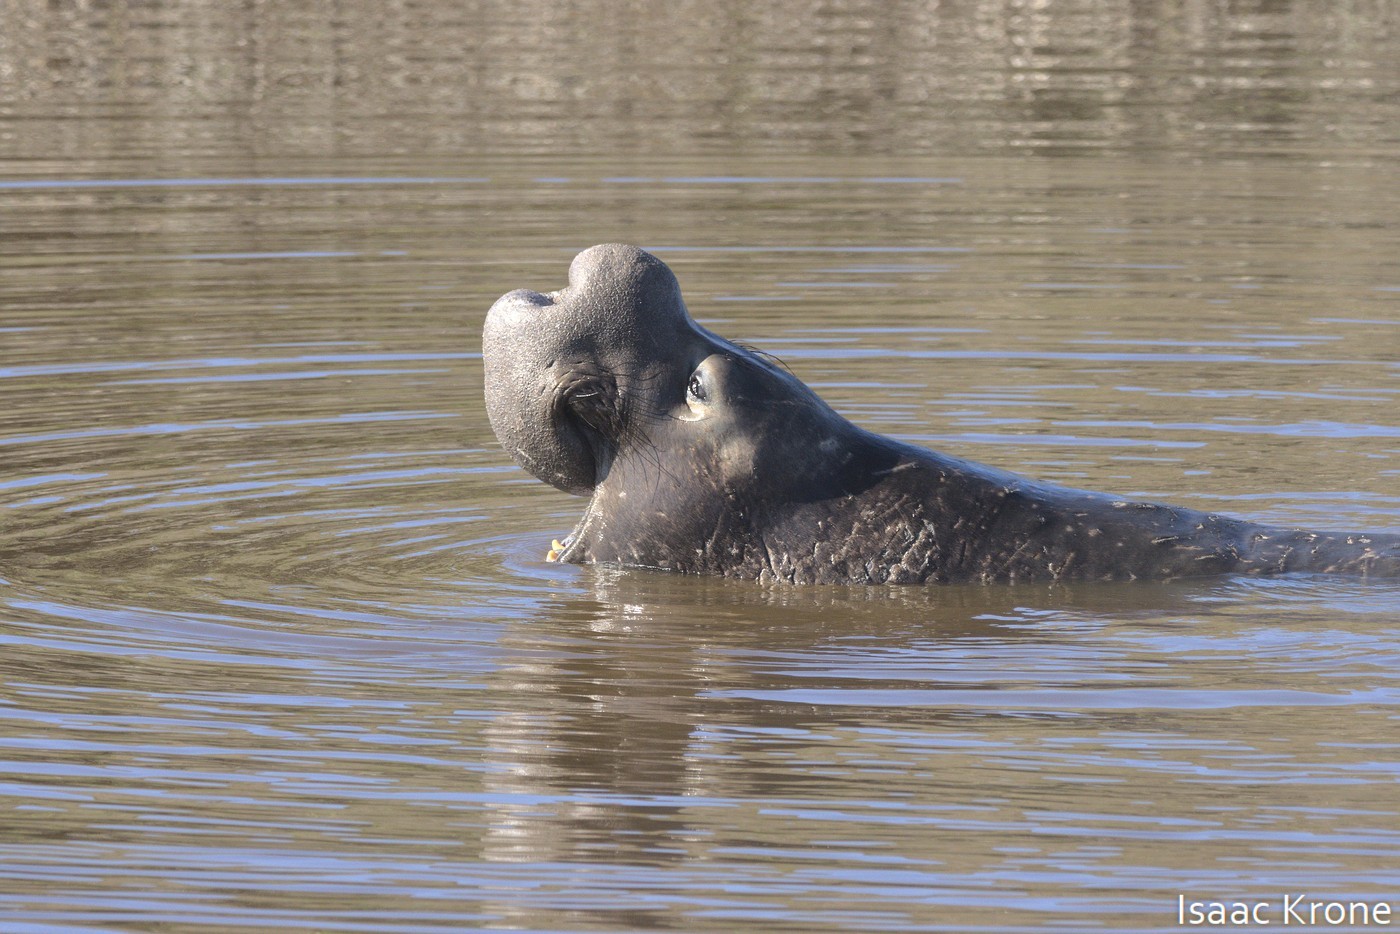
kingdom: Animalia
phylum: Chordata
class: Mammalia
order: Carnivora
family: Phocidae
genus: Mirounga
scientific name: Mirounga angustirostris
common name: Northern elephant seal
